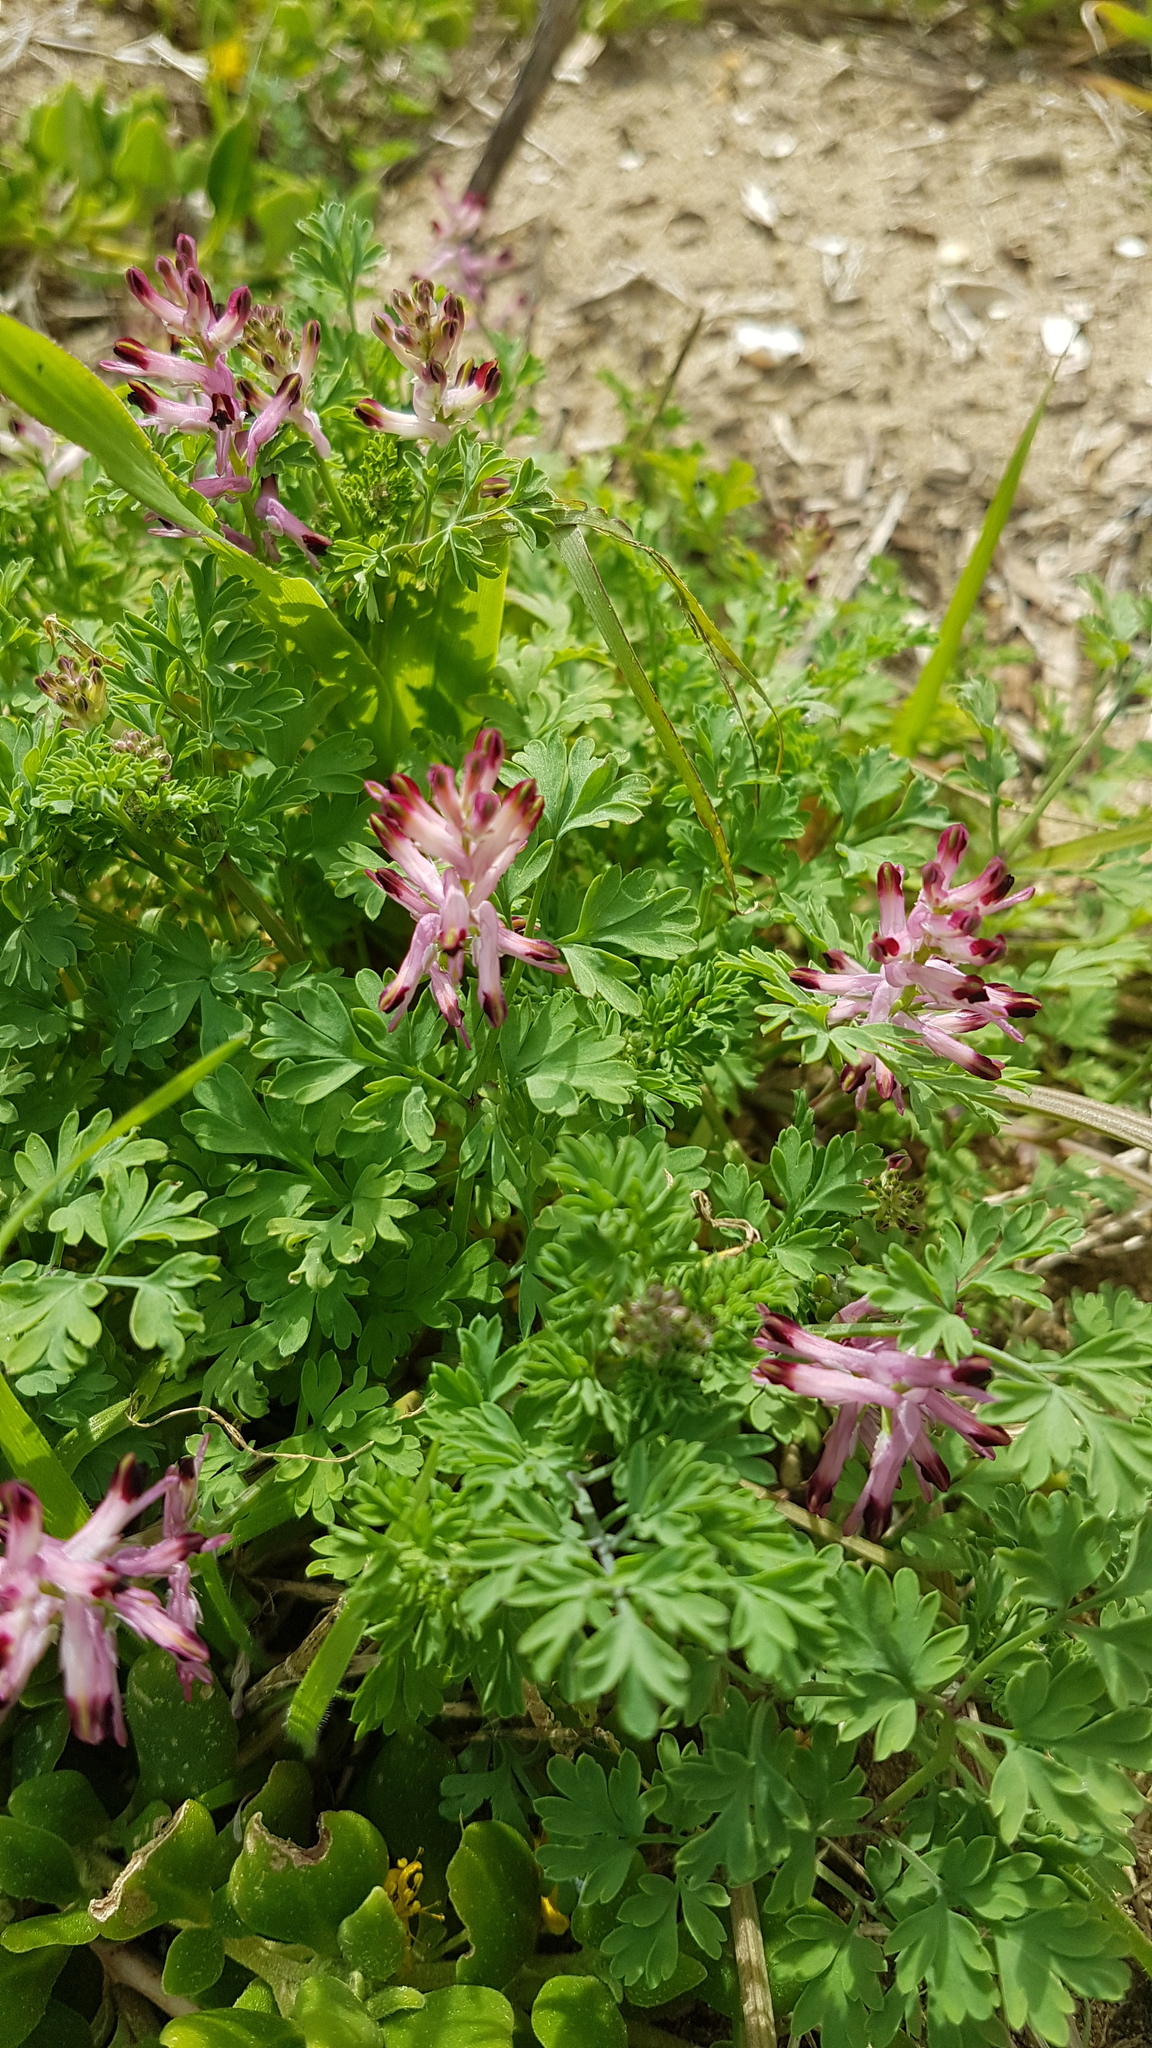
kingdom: Plantae
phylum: Tracheophyta
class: Magnoliopsida
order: Ranunculales
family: Papaveraceae
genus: Fumaria
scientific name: Fumaria bastardii
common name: Tall ramping-fumitory
